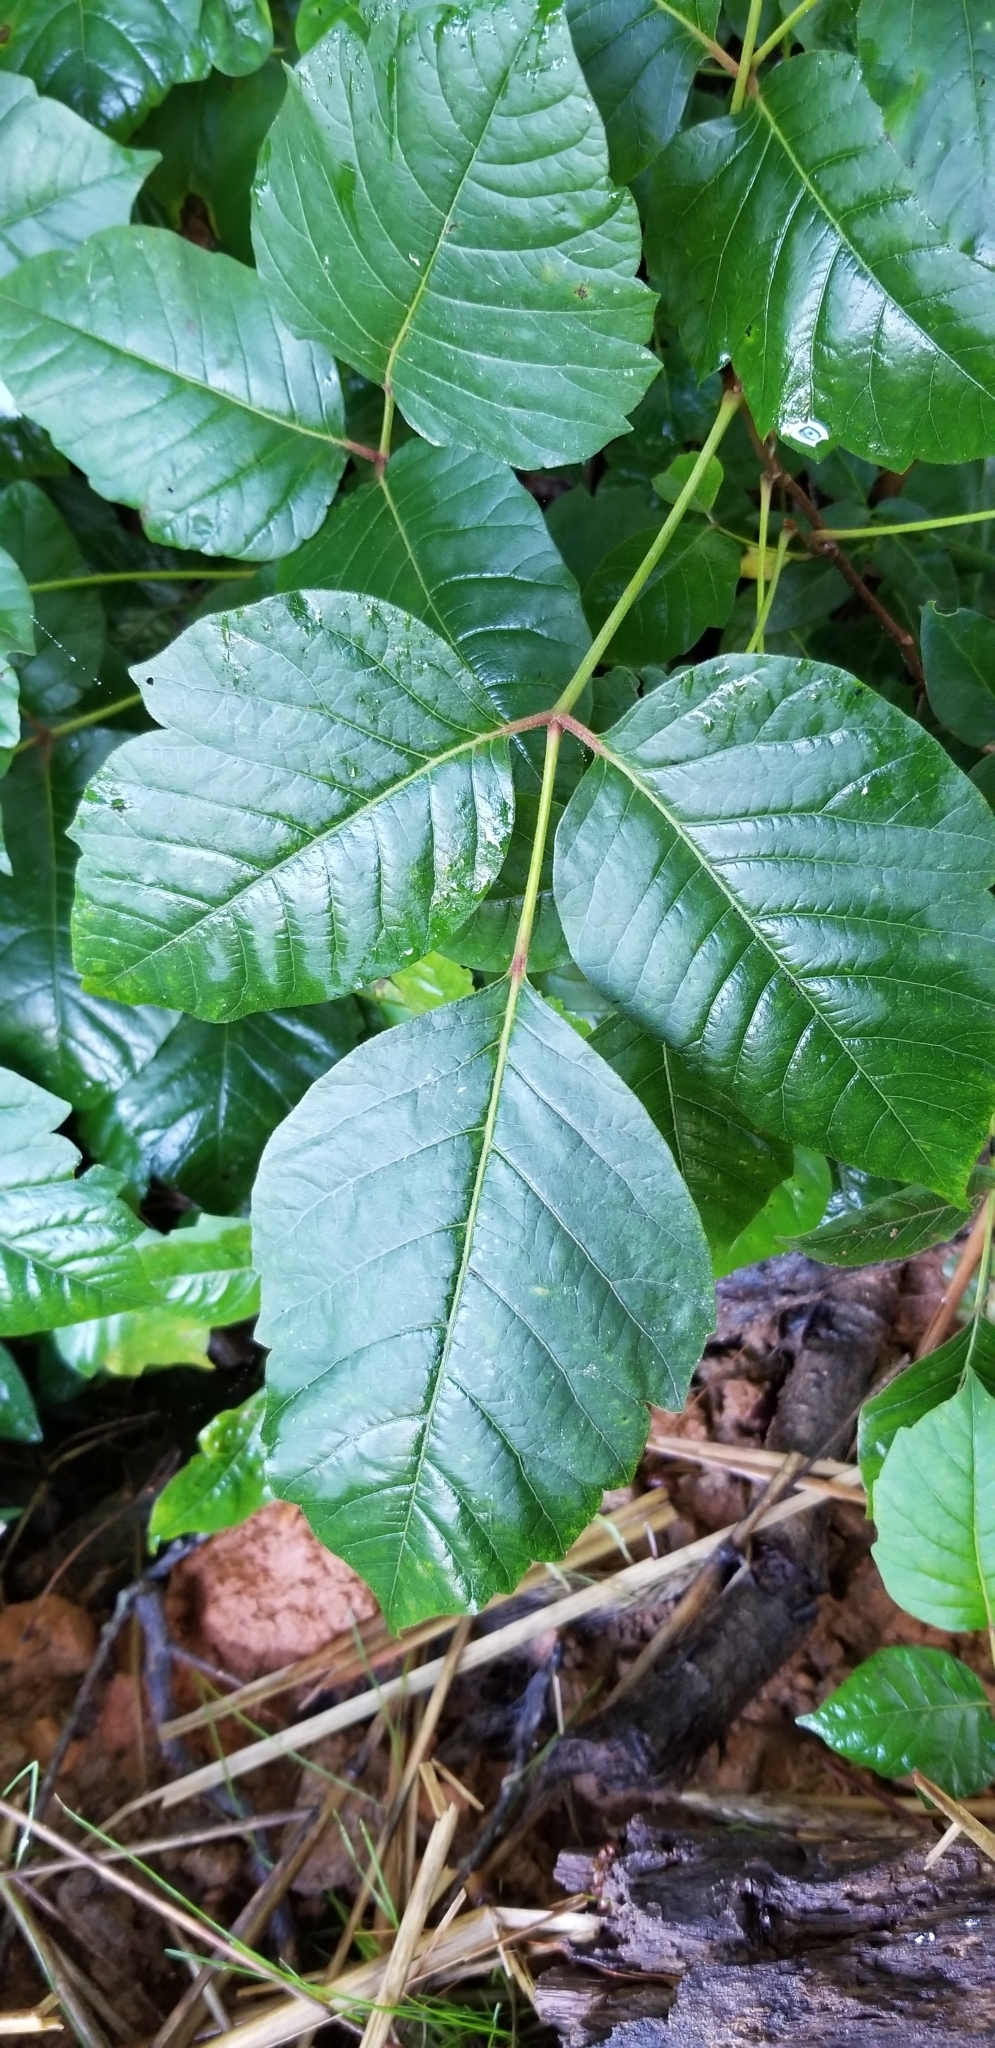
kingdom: Plantae
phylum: Tracheophyta
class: Magnoliopsida
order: Sapindales
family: Anacardiaceae
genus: Toxicodendron
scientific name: Toxicodendron radicans
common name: Poison ivy
